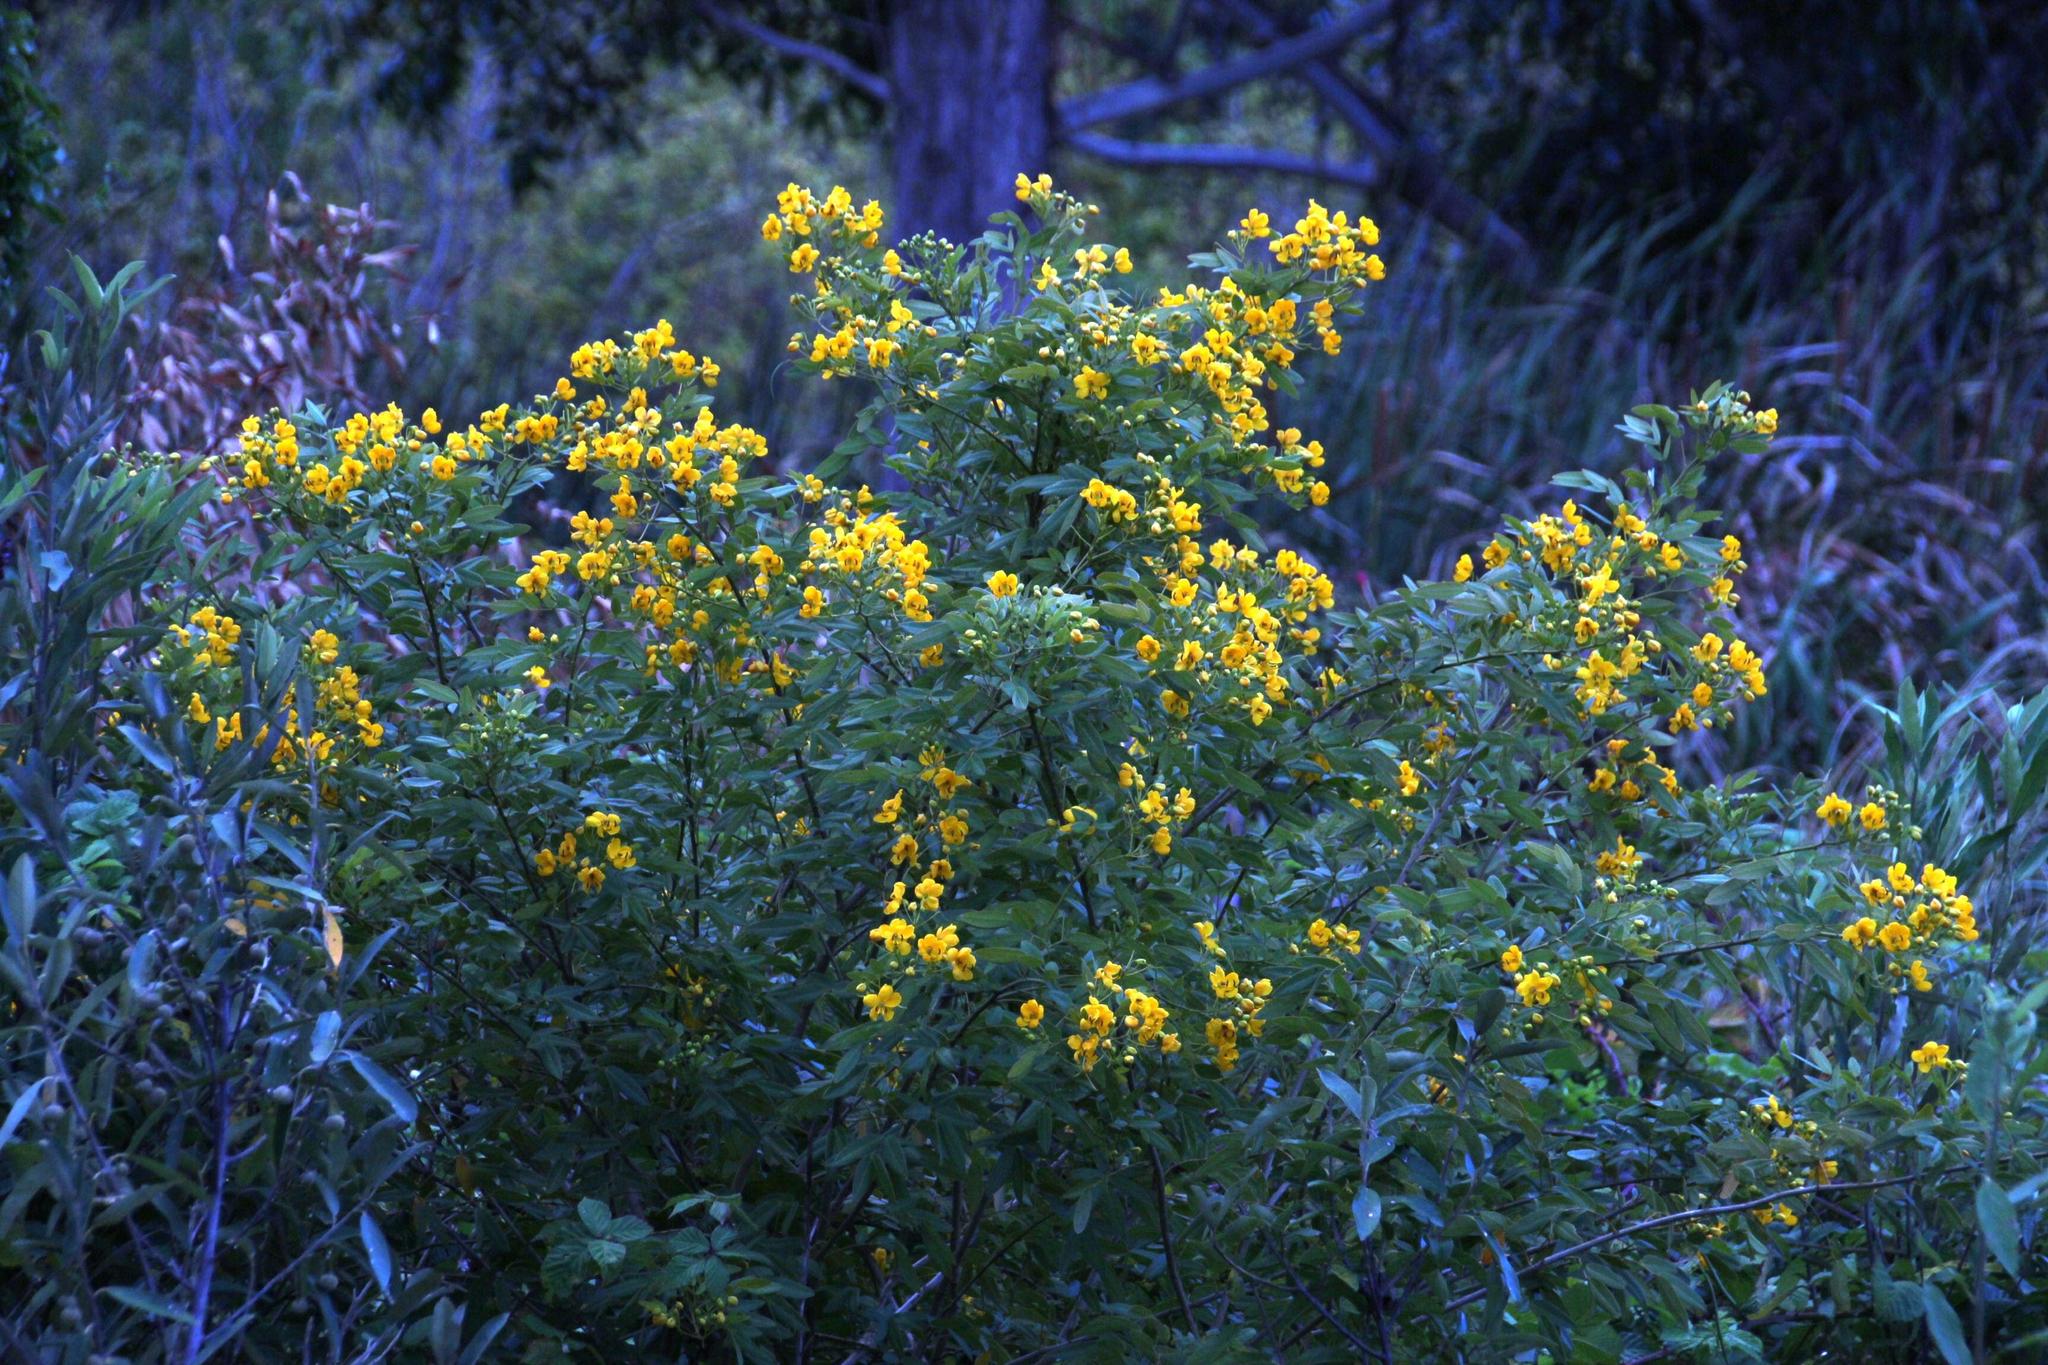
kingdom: Plantae
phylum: Tracheophyta
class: Magnoliopsida
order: Fabales
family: Fabaceae
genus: Senna
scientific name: Senna corymbosa
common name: Argentine senna
